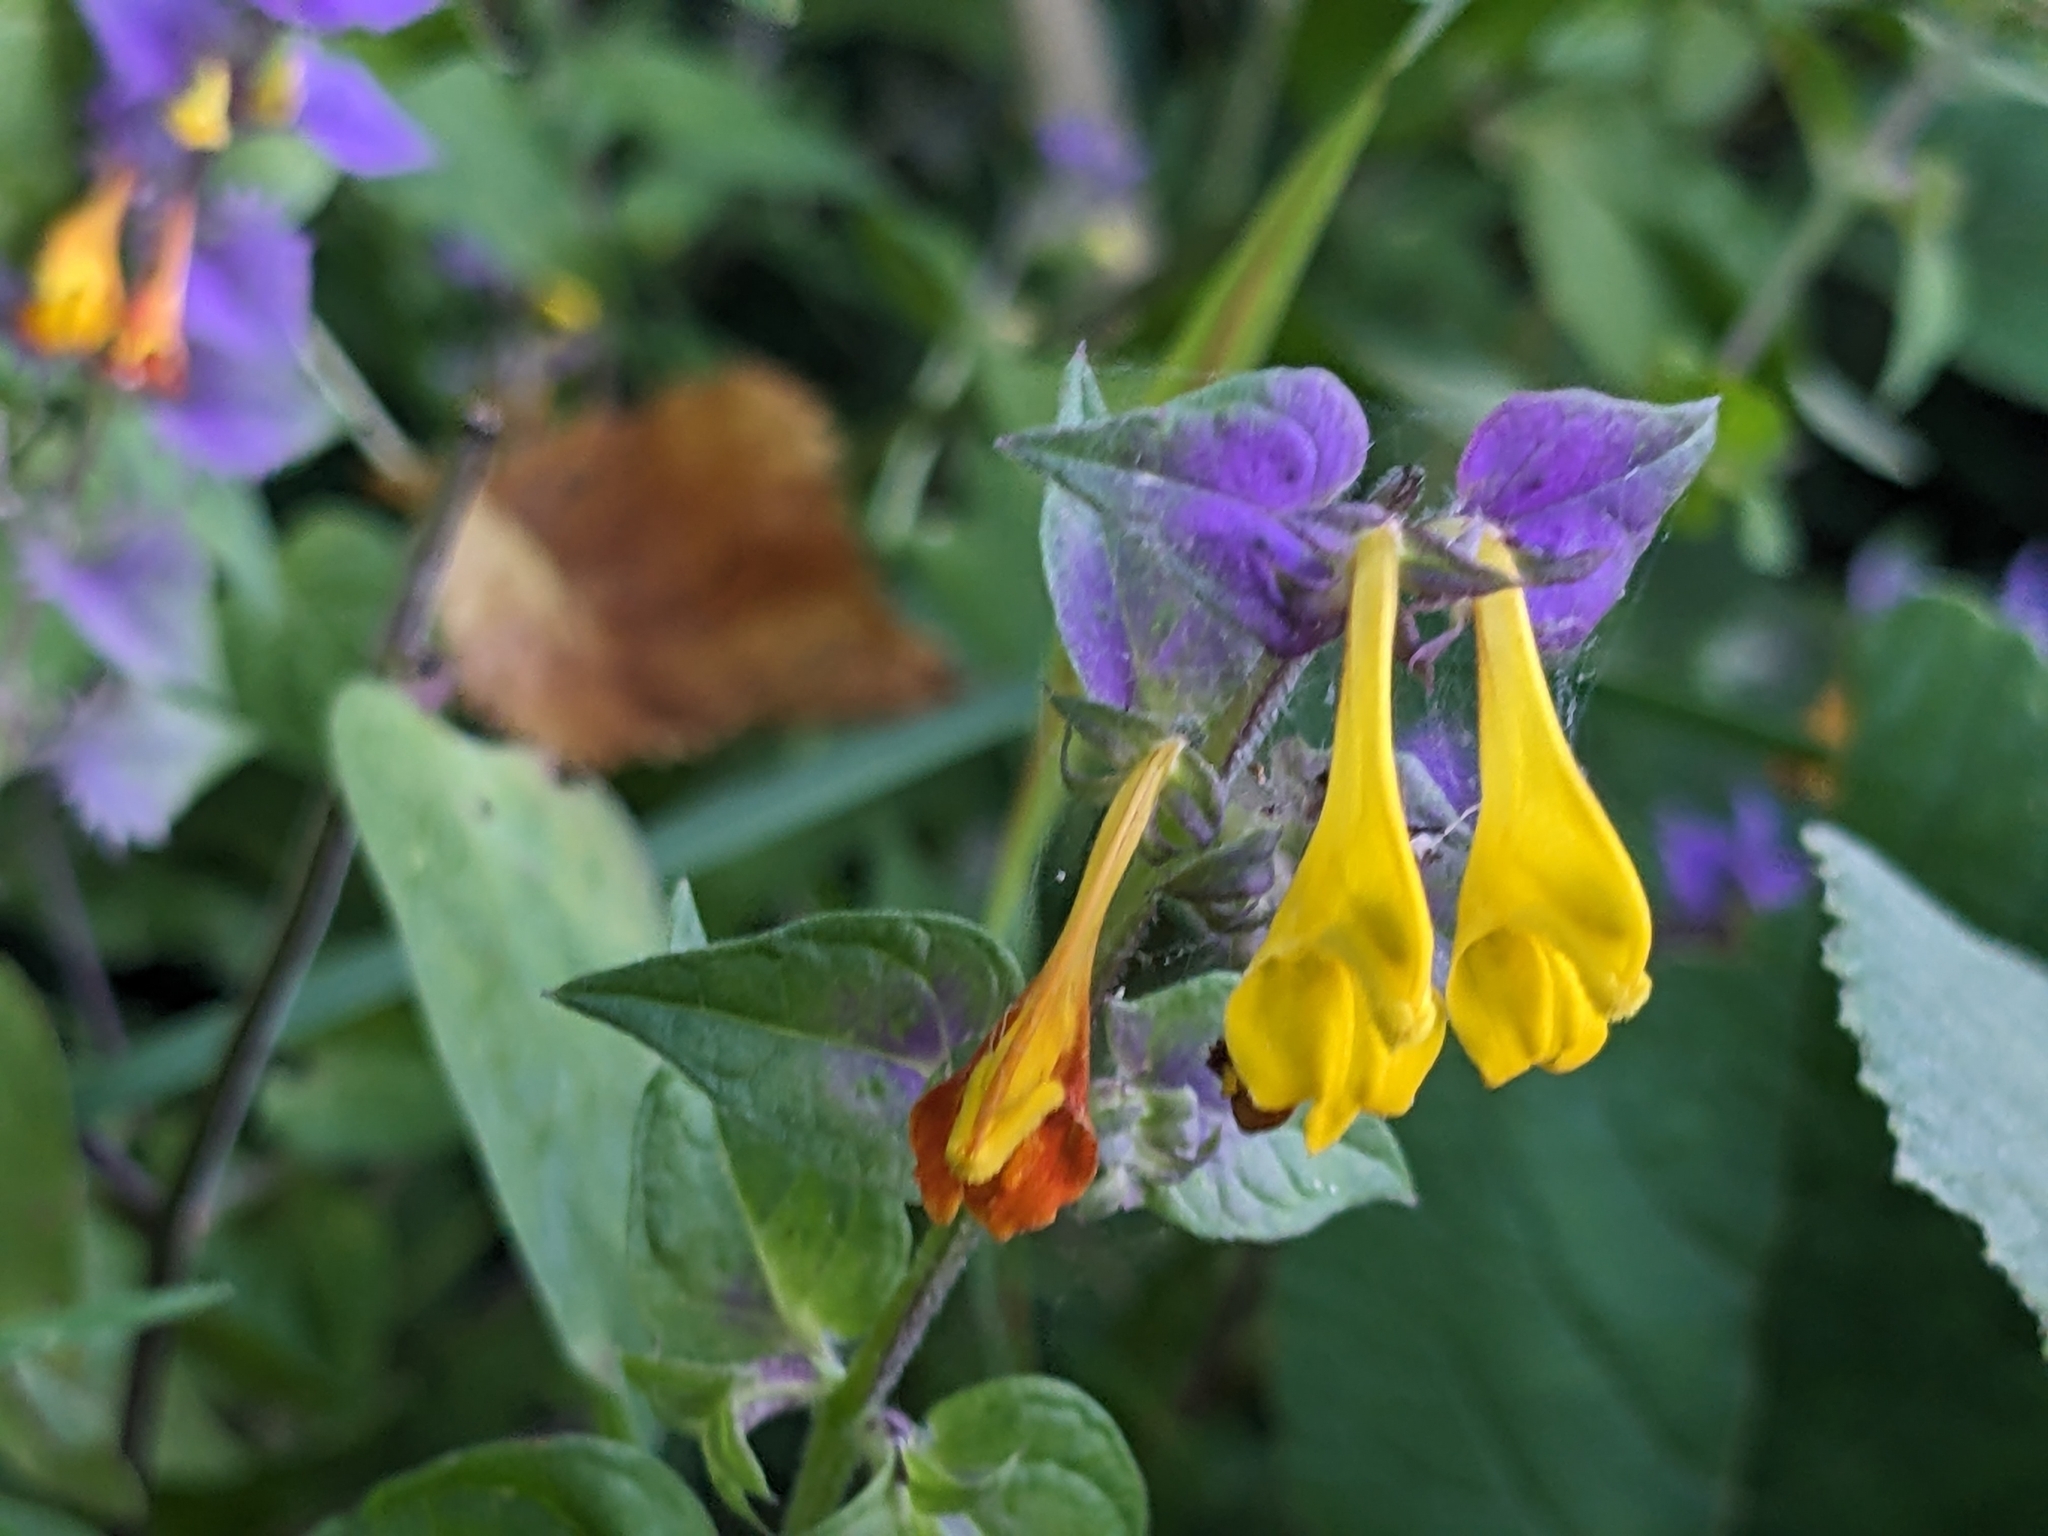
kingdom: Plantae
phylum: Tracheophyta
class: Magnoliopsida
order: Lamiales
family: Orobanchaceae
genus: Melampyrum
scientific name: Melampyrum nemorosum
